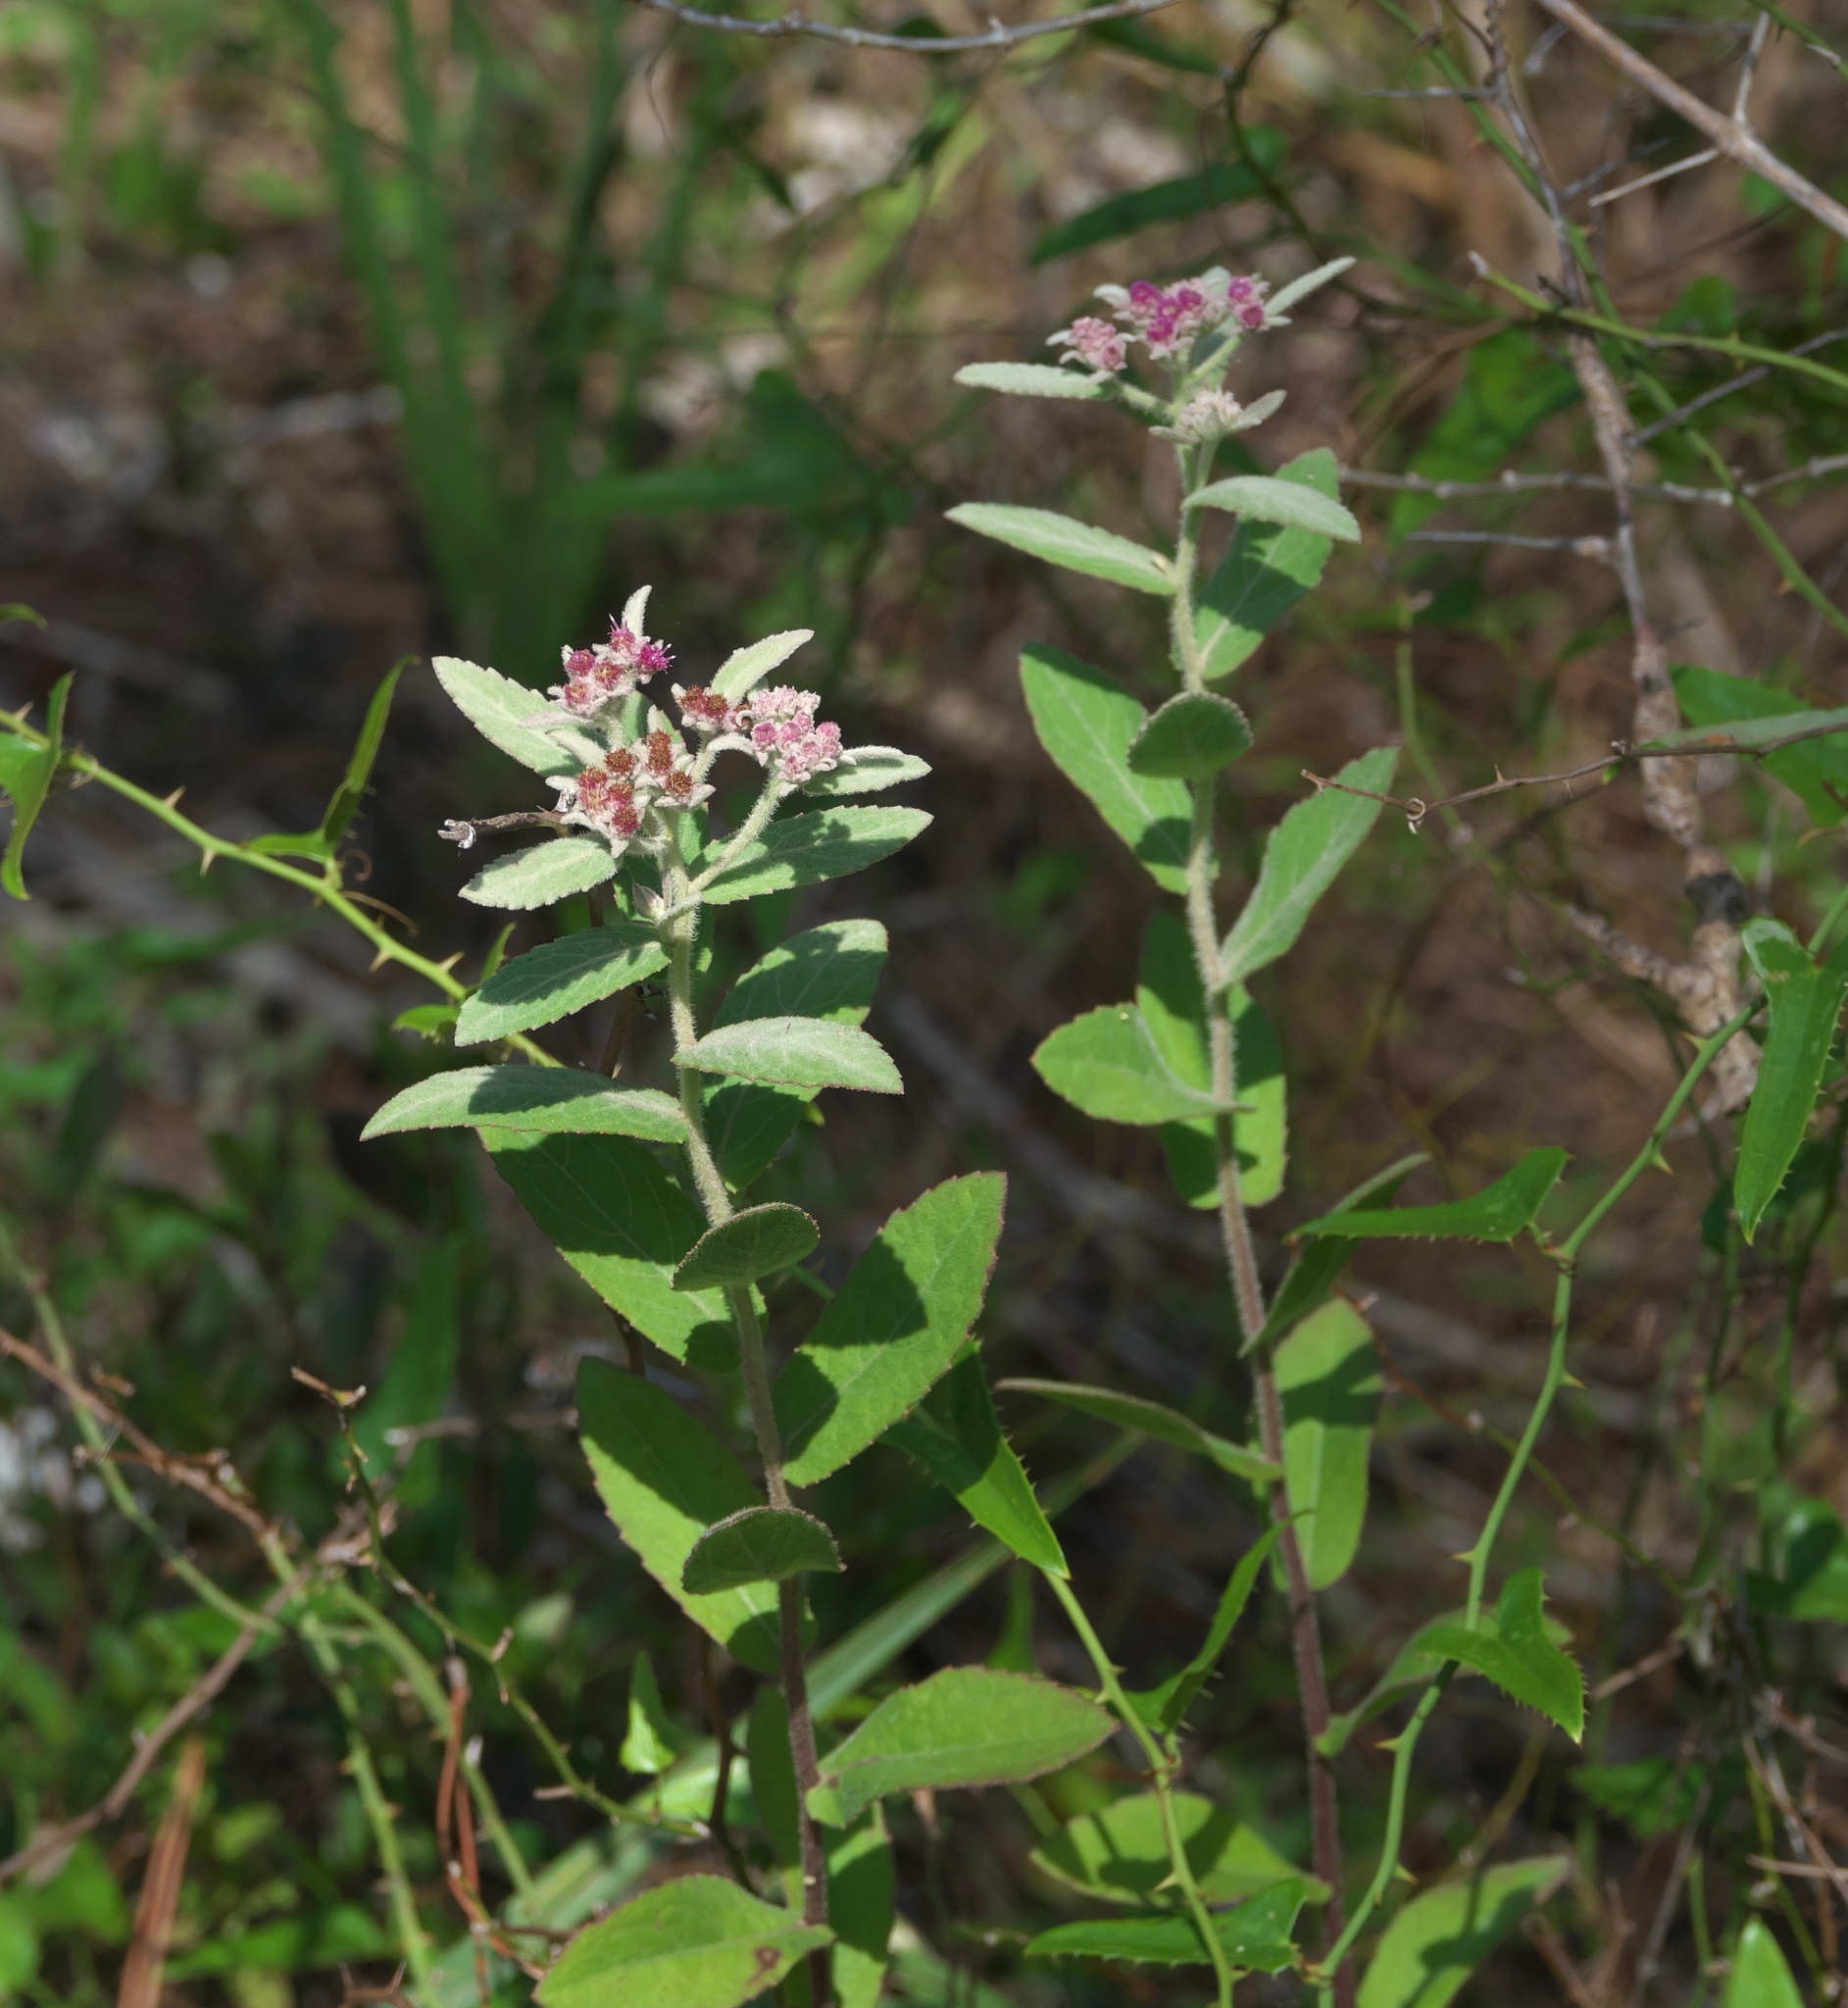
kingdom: Plantae
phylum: Tracheophyta
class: Magnoliopsida
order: Asterales
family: Asteraceae
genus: Pluchea
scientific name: Pluchea baccharis
